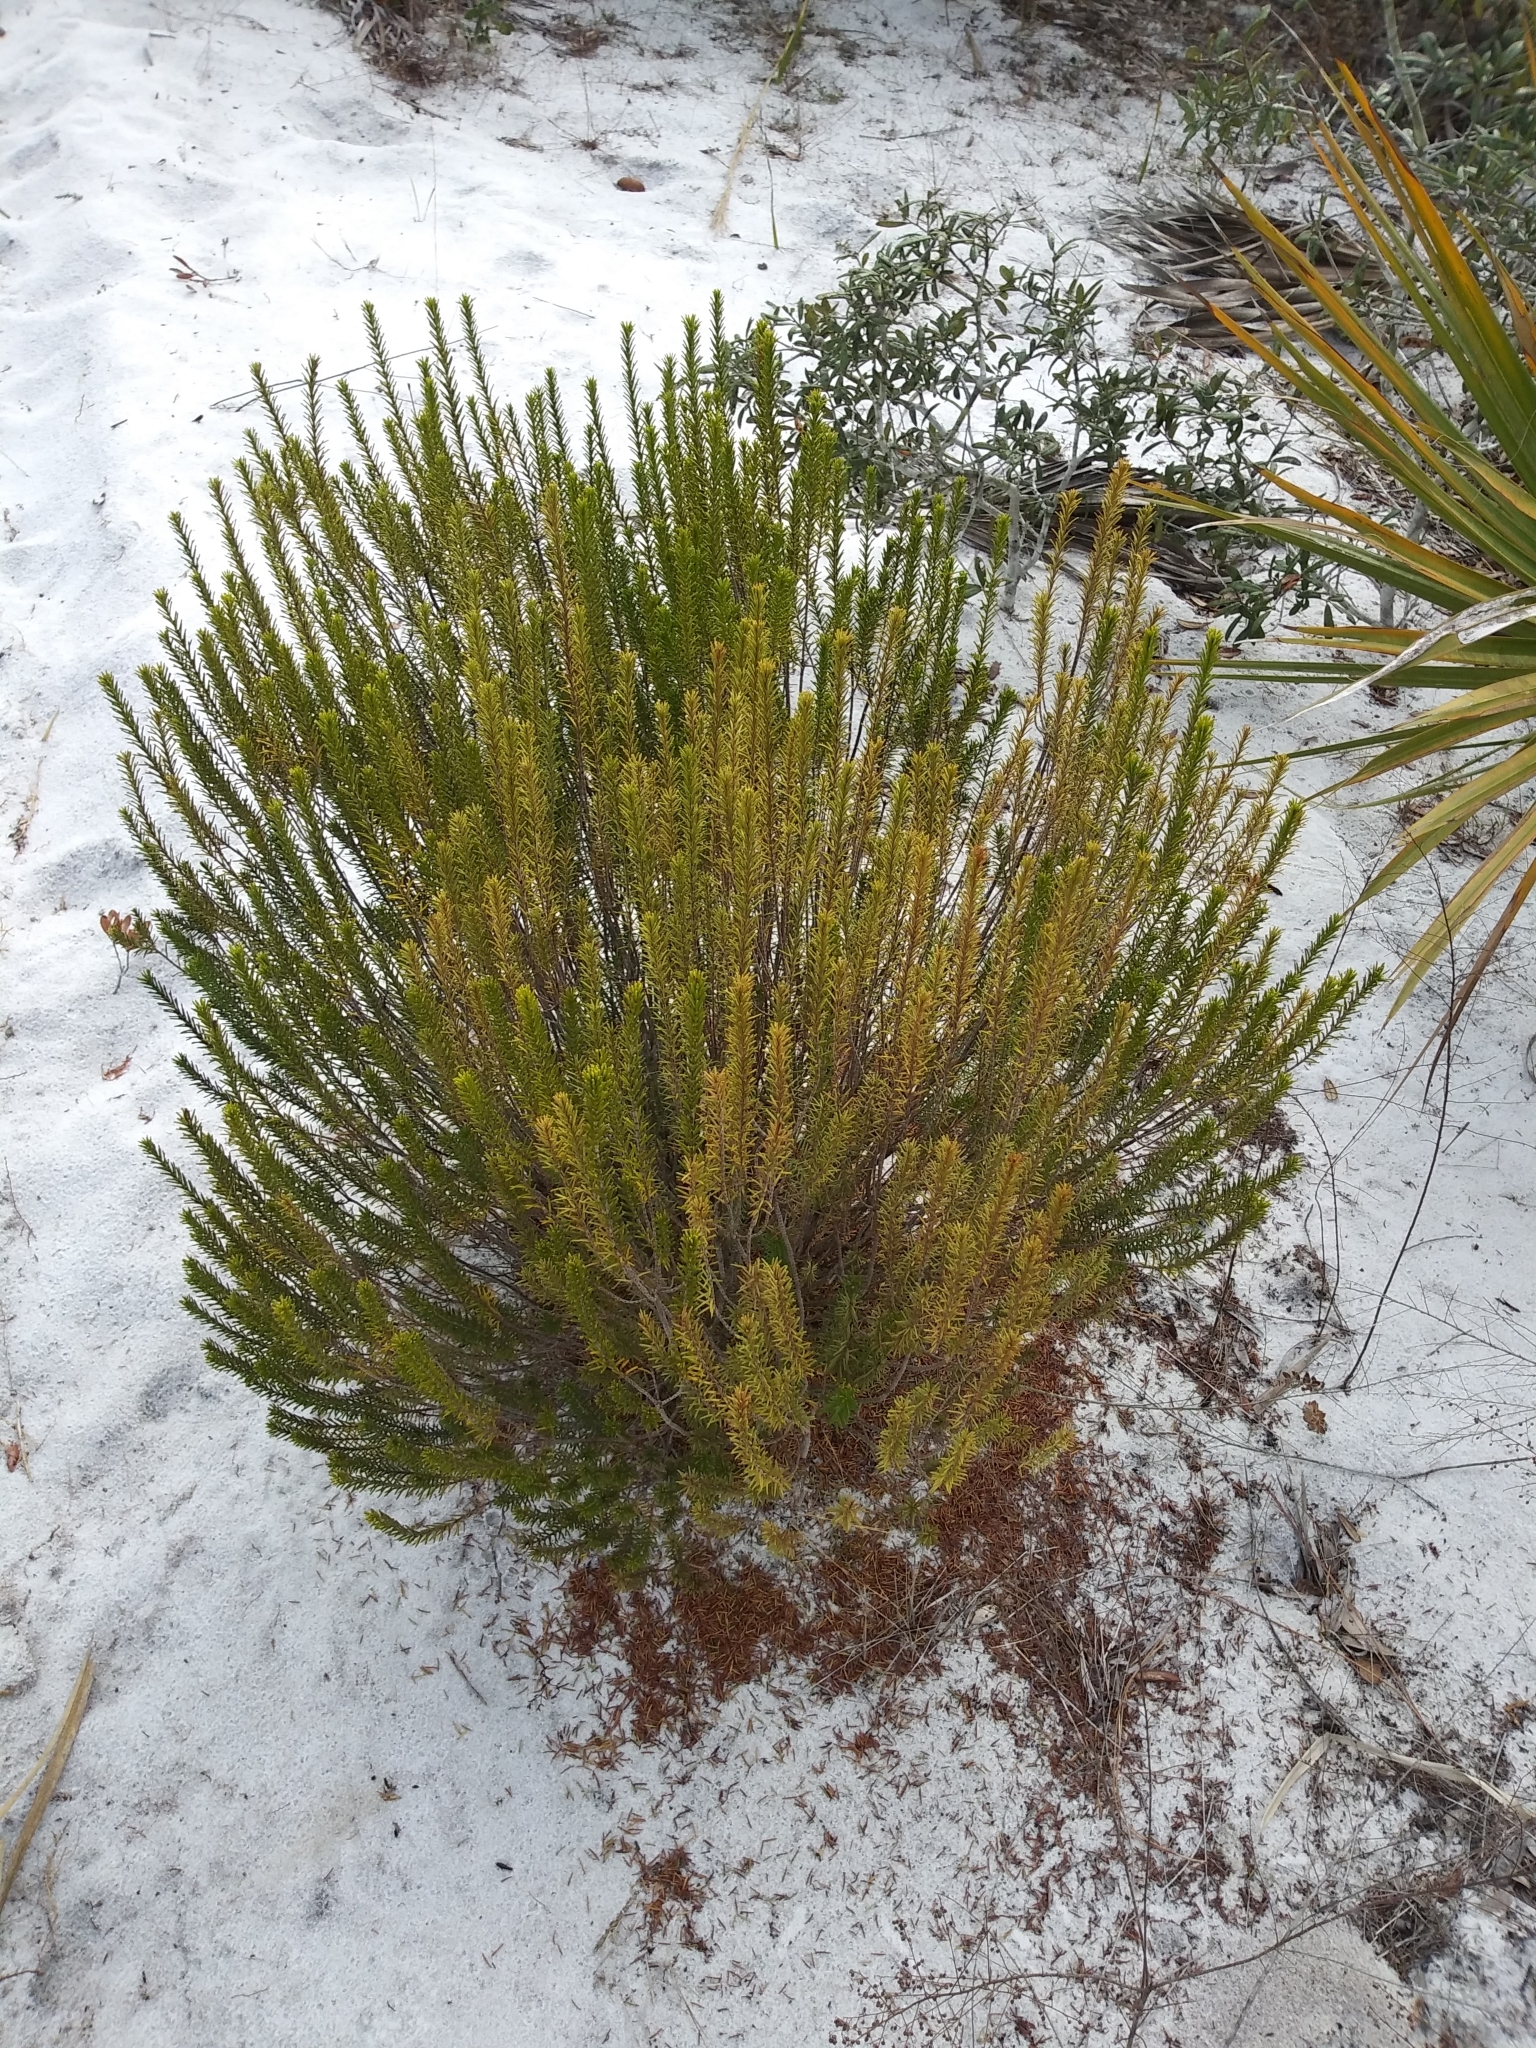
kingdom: Plantae
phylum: Tracheophyta
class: Magnoliopsida
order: Ericales
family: Ericaceae
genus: Ceratiola
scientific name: Ceratiola ericoides
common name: Sandhill-rosemary
